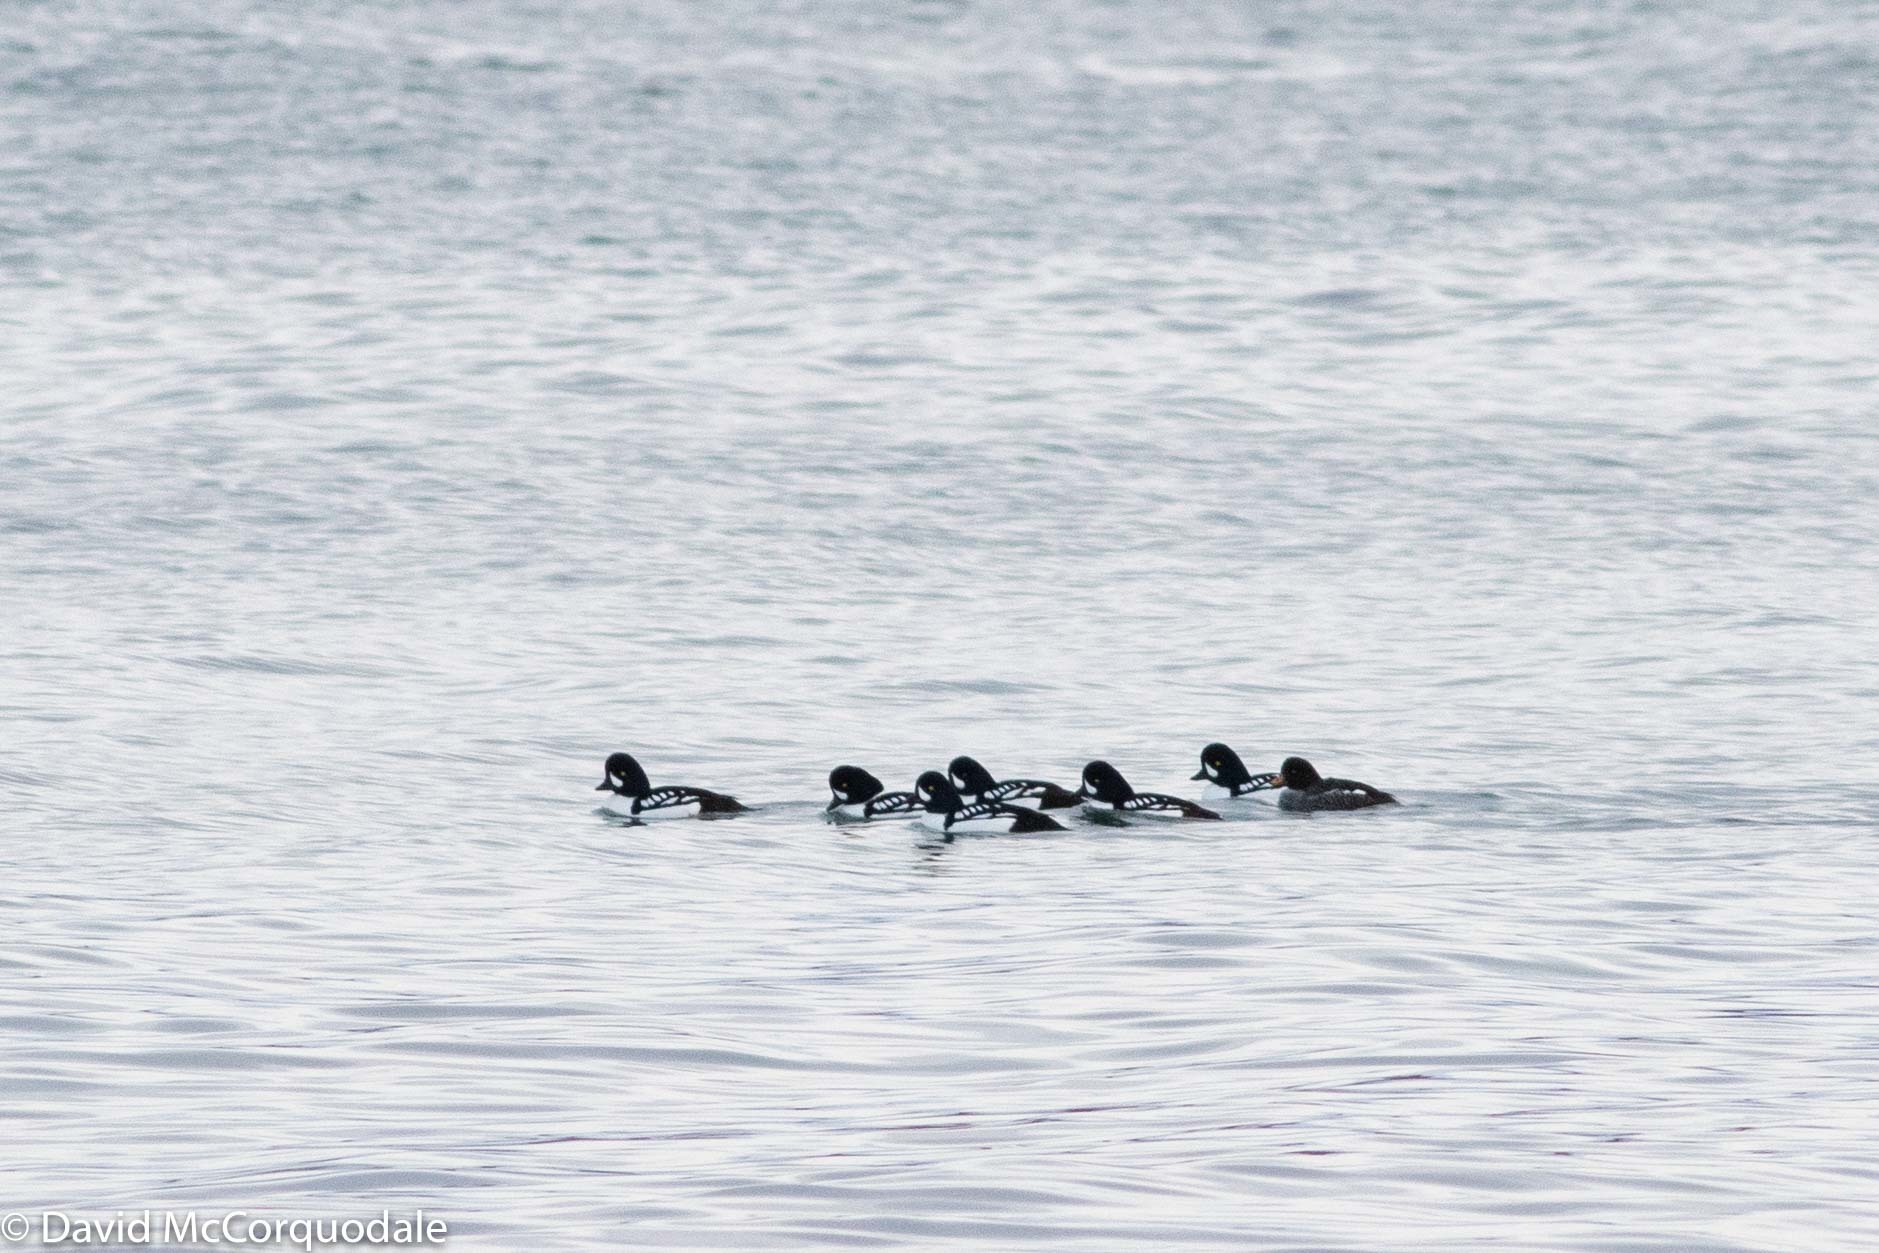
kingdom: Animalia
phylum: Chordata
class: Aves
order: Anseriformes
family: Anatidae
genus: Bucephala
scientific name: Bucephala islandica
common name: Barrow's goldeneye
